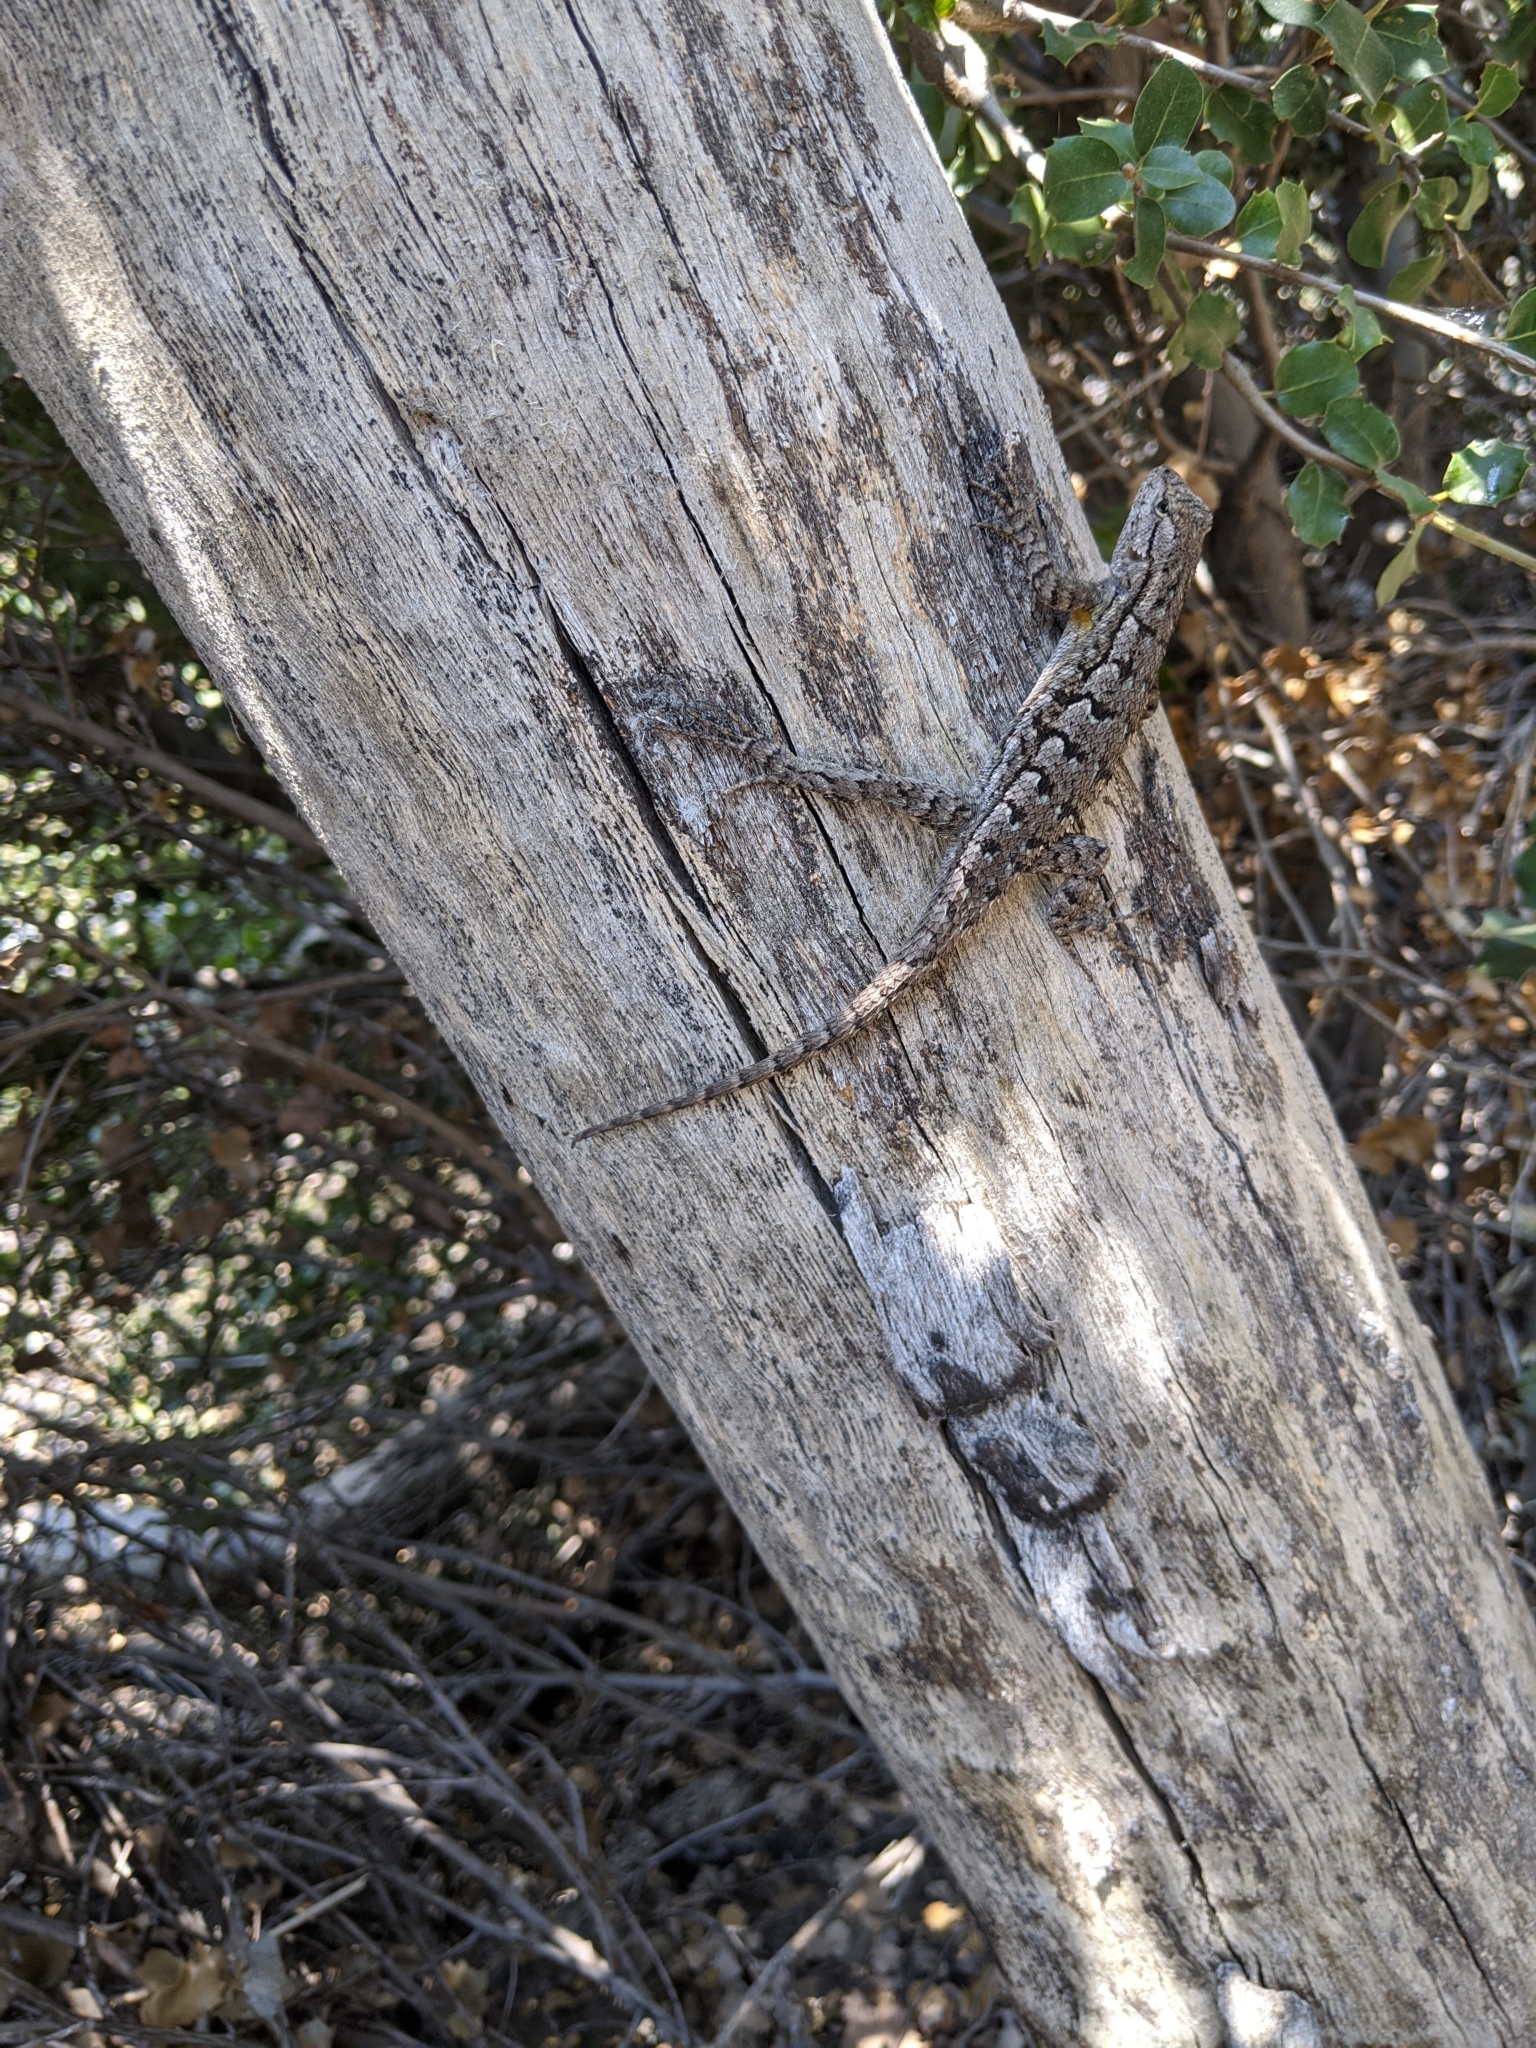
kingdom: Animalia
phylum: Chordata
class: Squamata
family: Phrynosomatidae
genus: Sceloporus
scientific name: Sceloporus occidentalis
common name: Western fence lizard
